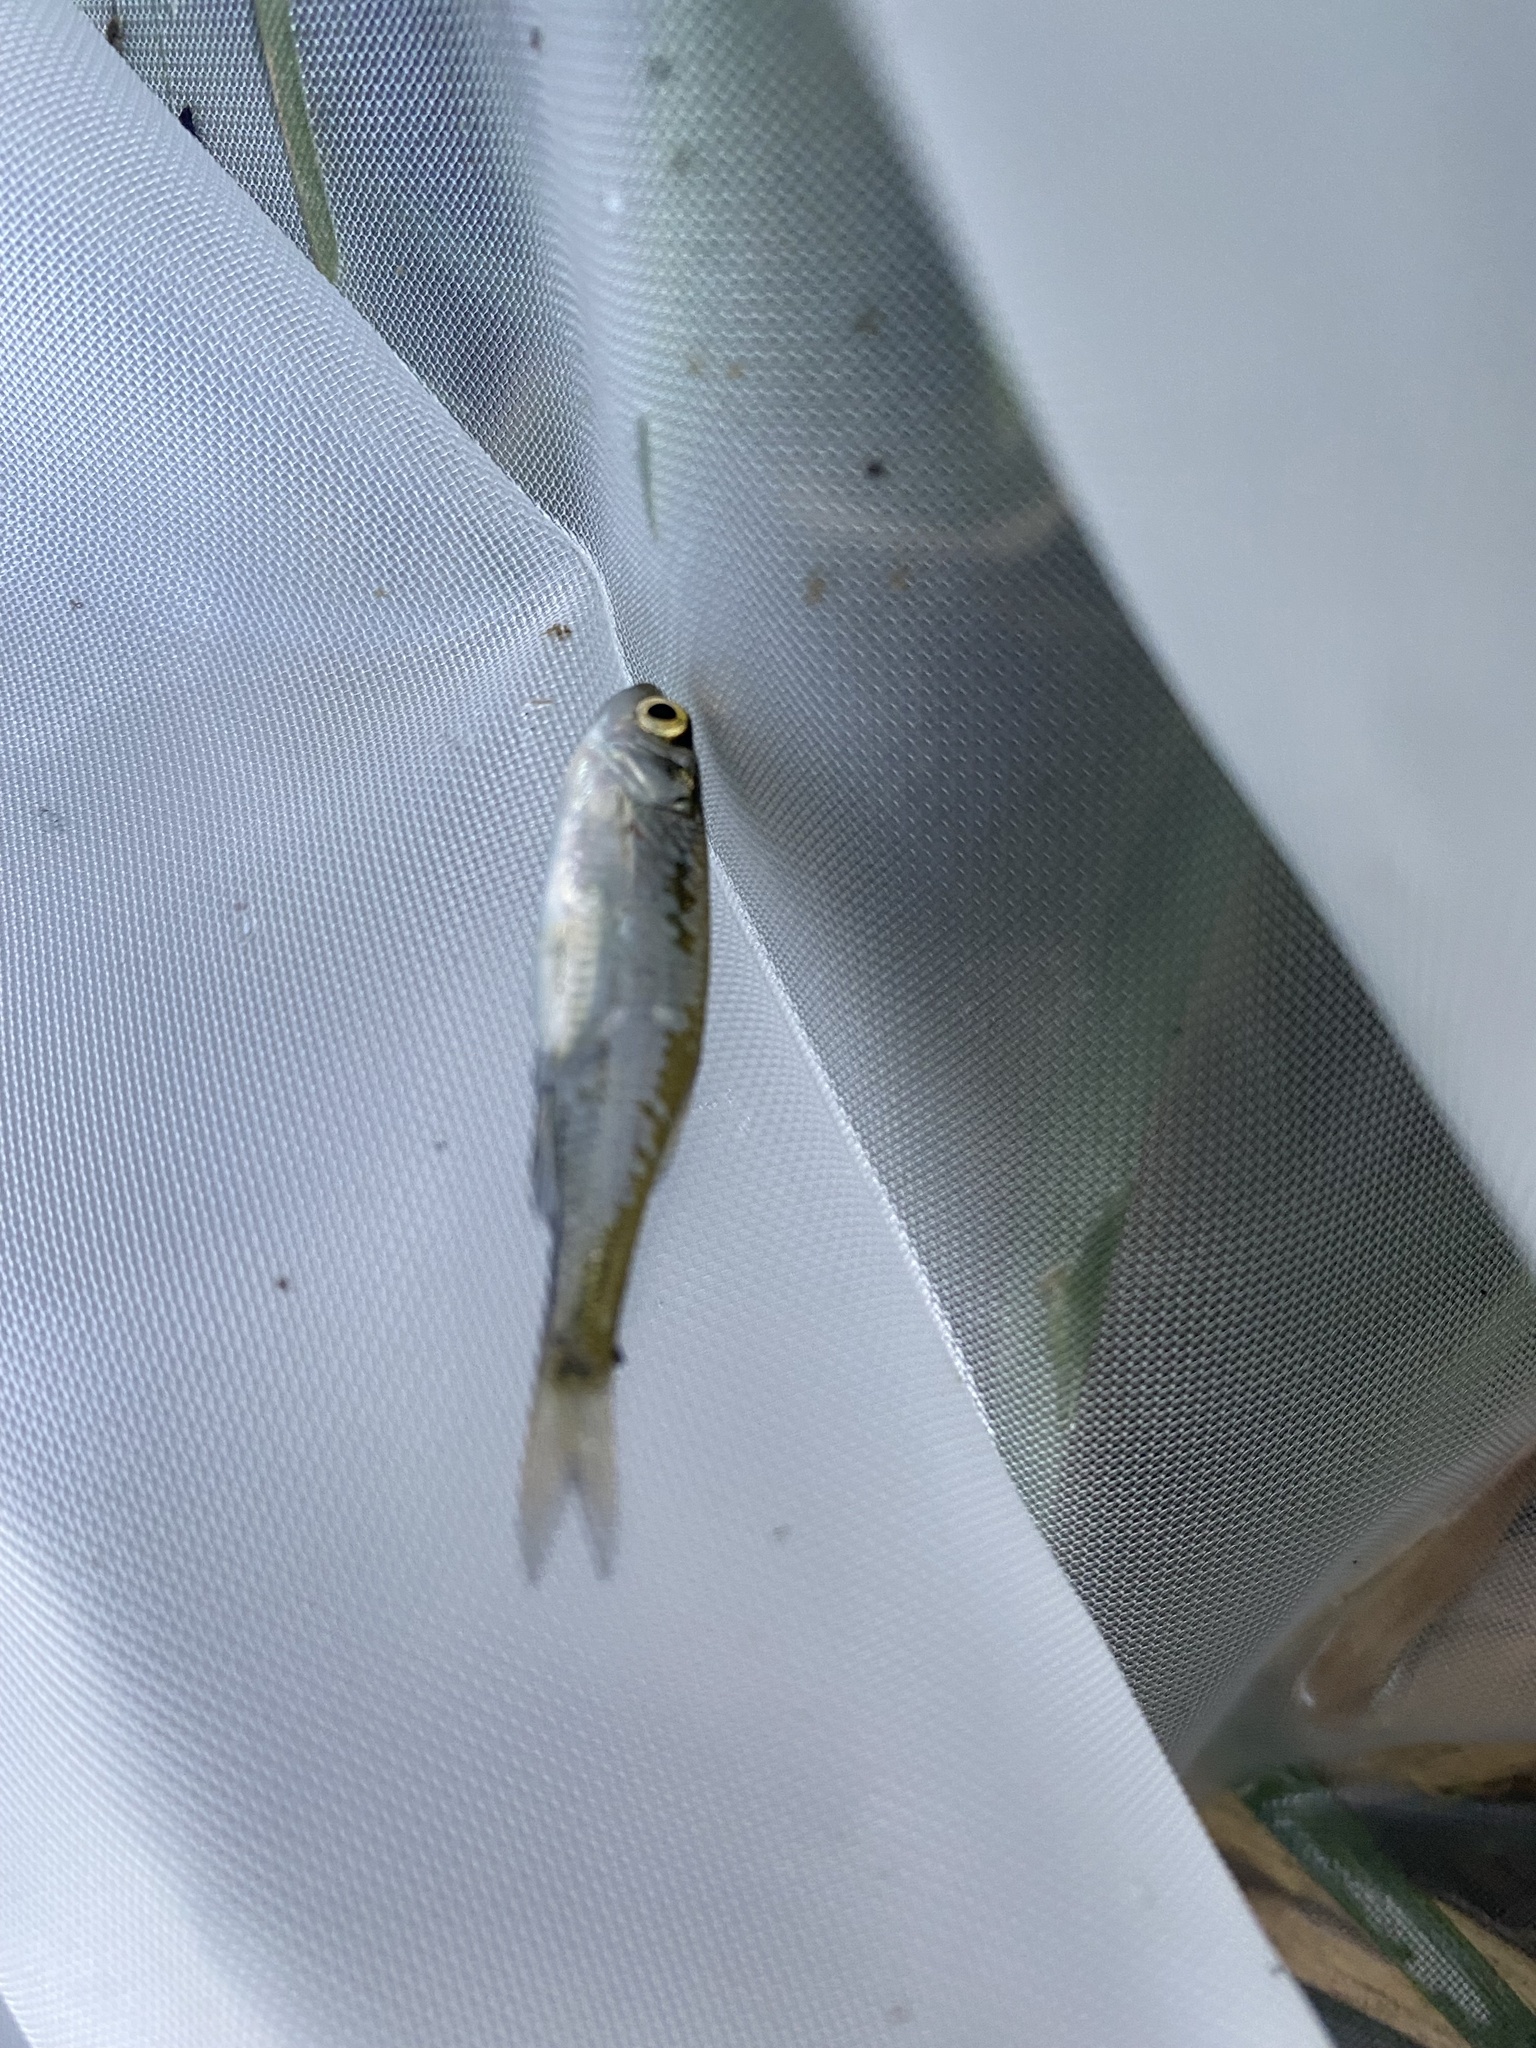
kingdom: Animalia
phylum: Chordata
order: Cypriniformes
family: Cyprinidae
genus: Leucaspius
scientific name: Leucaspius delineatus
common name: Sunbleak
